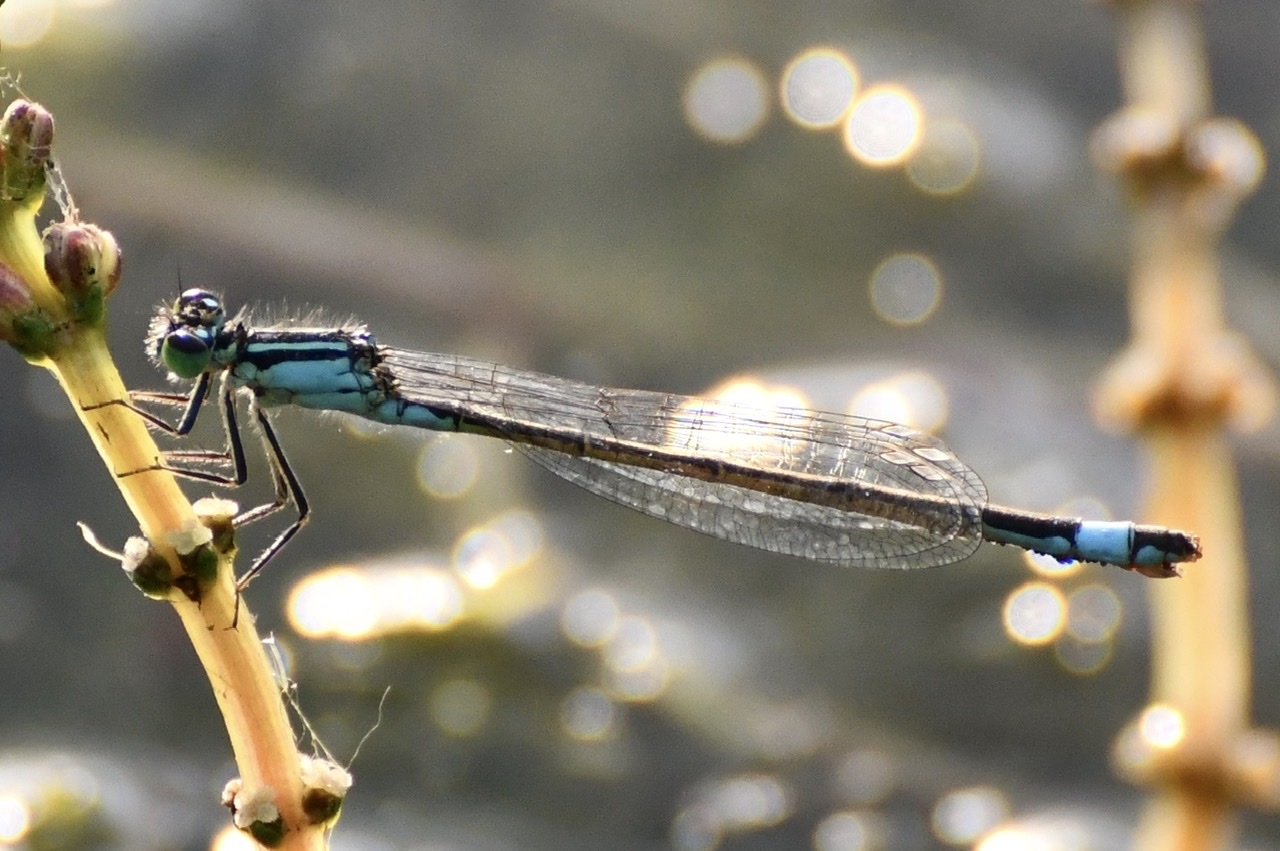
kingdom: Animalia
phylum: Arthropoda
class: Insecta
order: Odonata
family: Coenagrionidae
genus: Ischnura
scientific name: Ischnura elegans
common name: Blue-tailed damselfly
